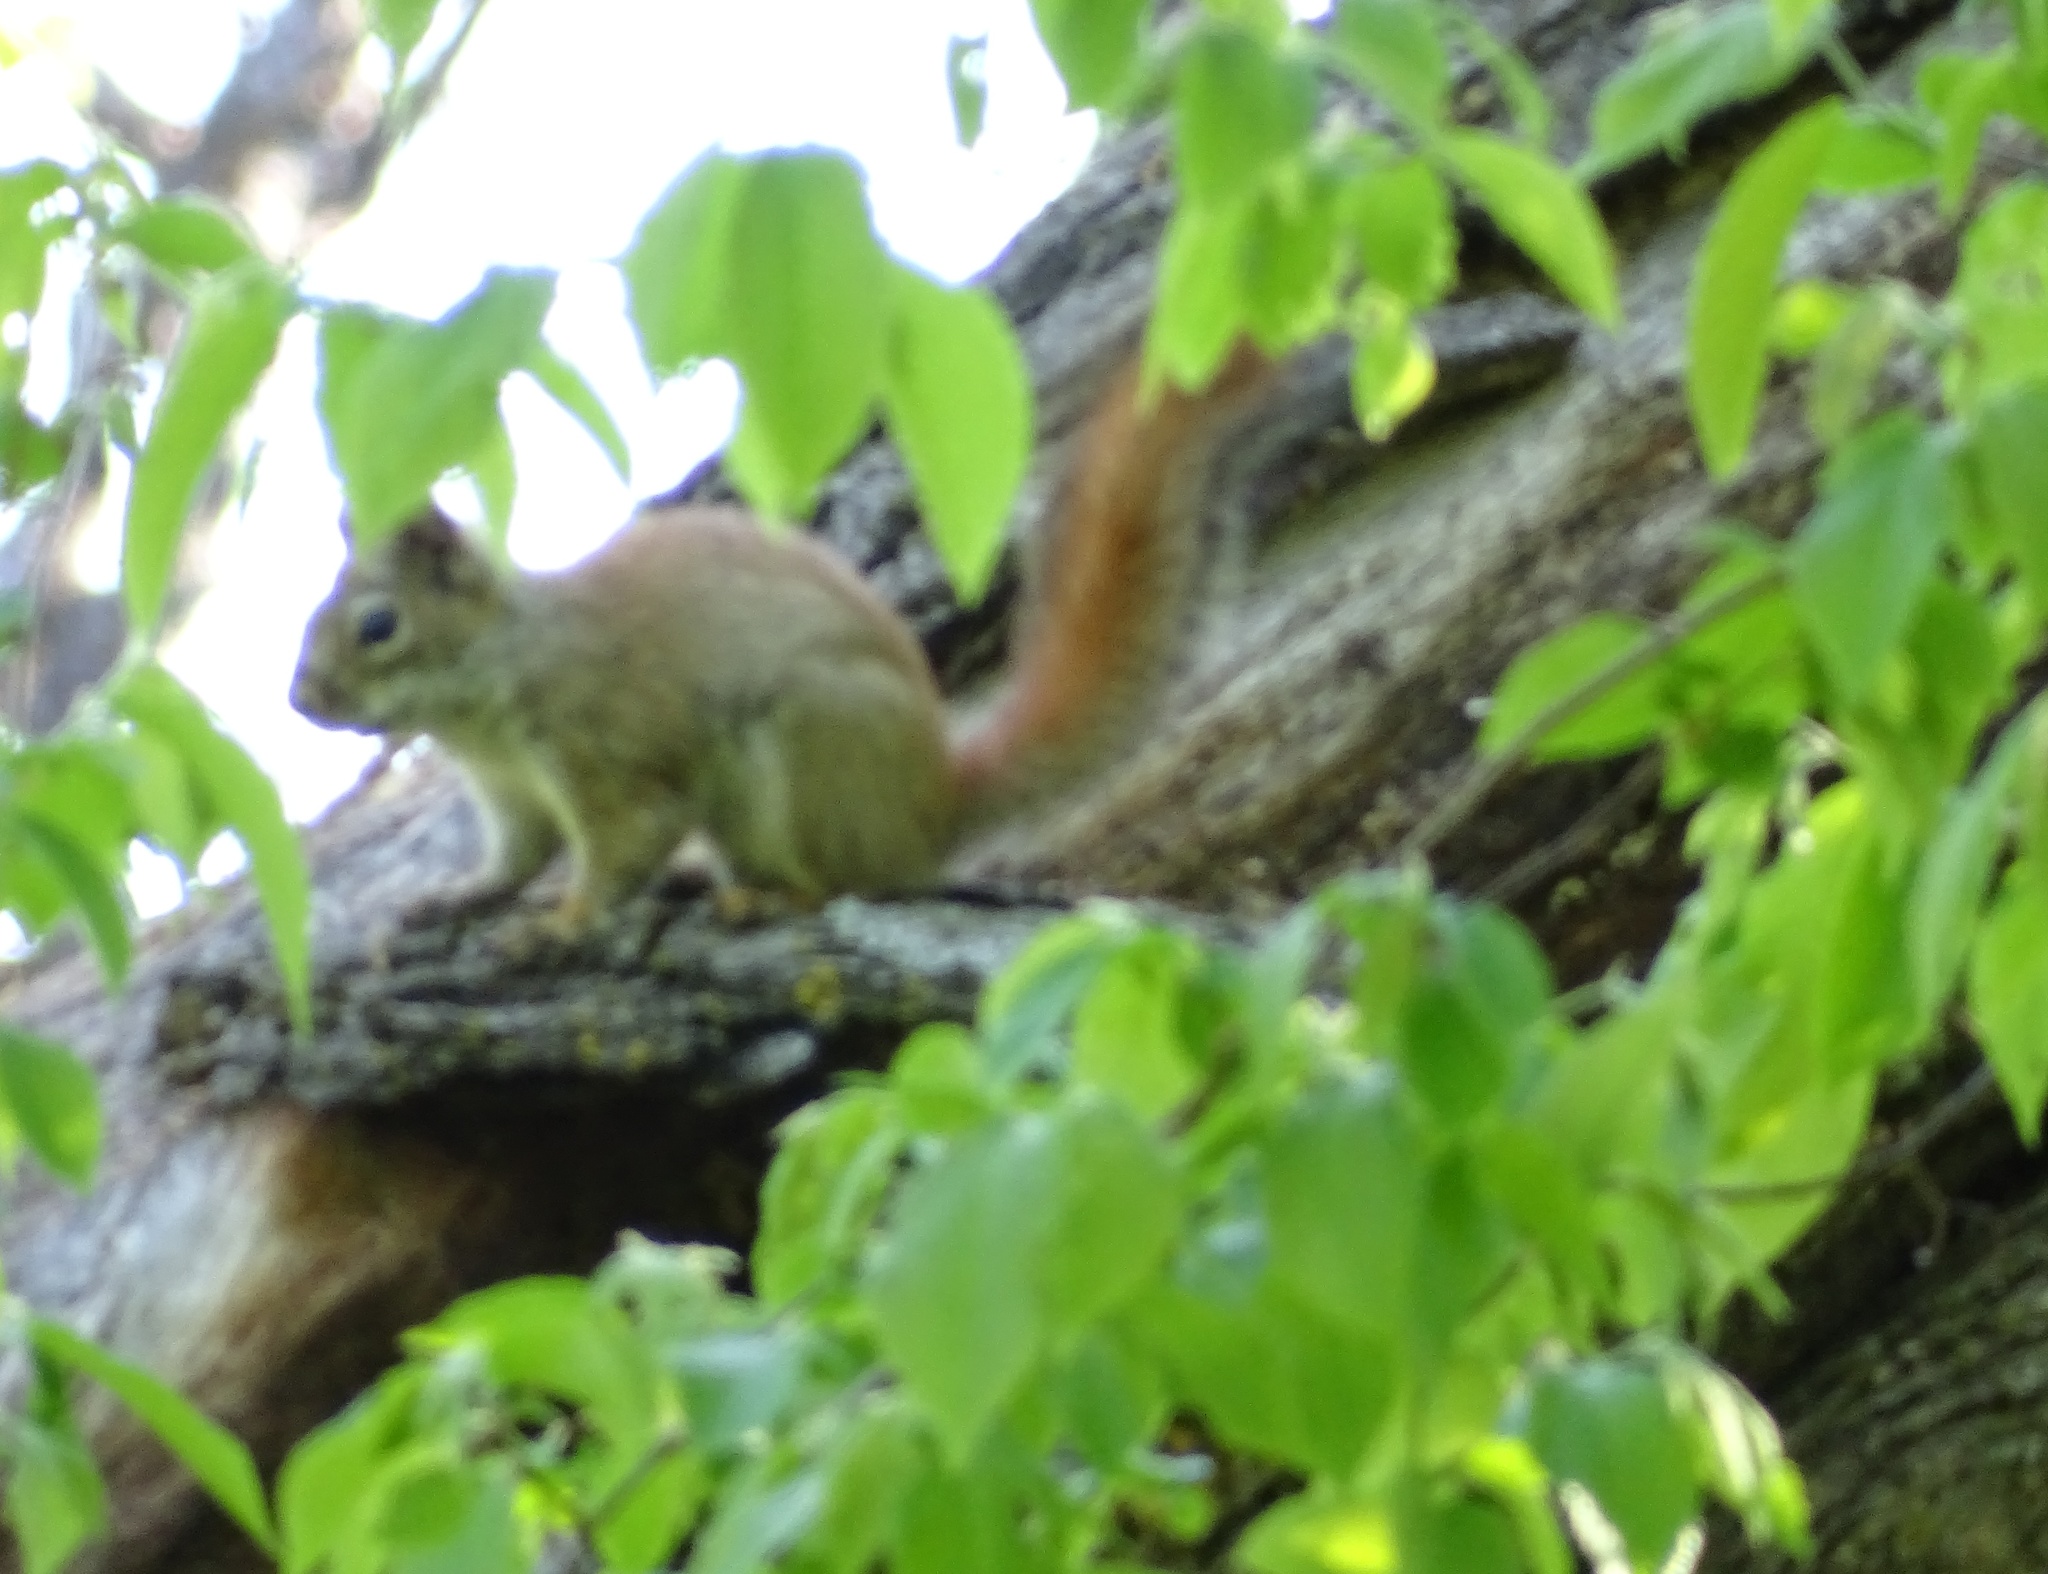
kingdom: Animalia
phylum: Chordata
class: Mammalia
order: Rodentia
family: Sciuridae
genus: Tamiasciurus
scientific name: Tamiasciurus hudsonicus
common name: Red squirrel
